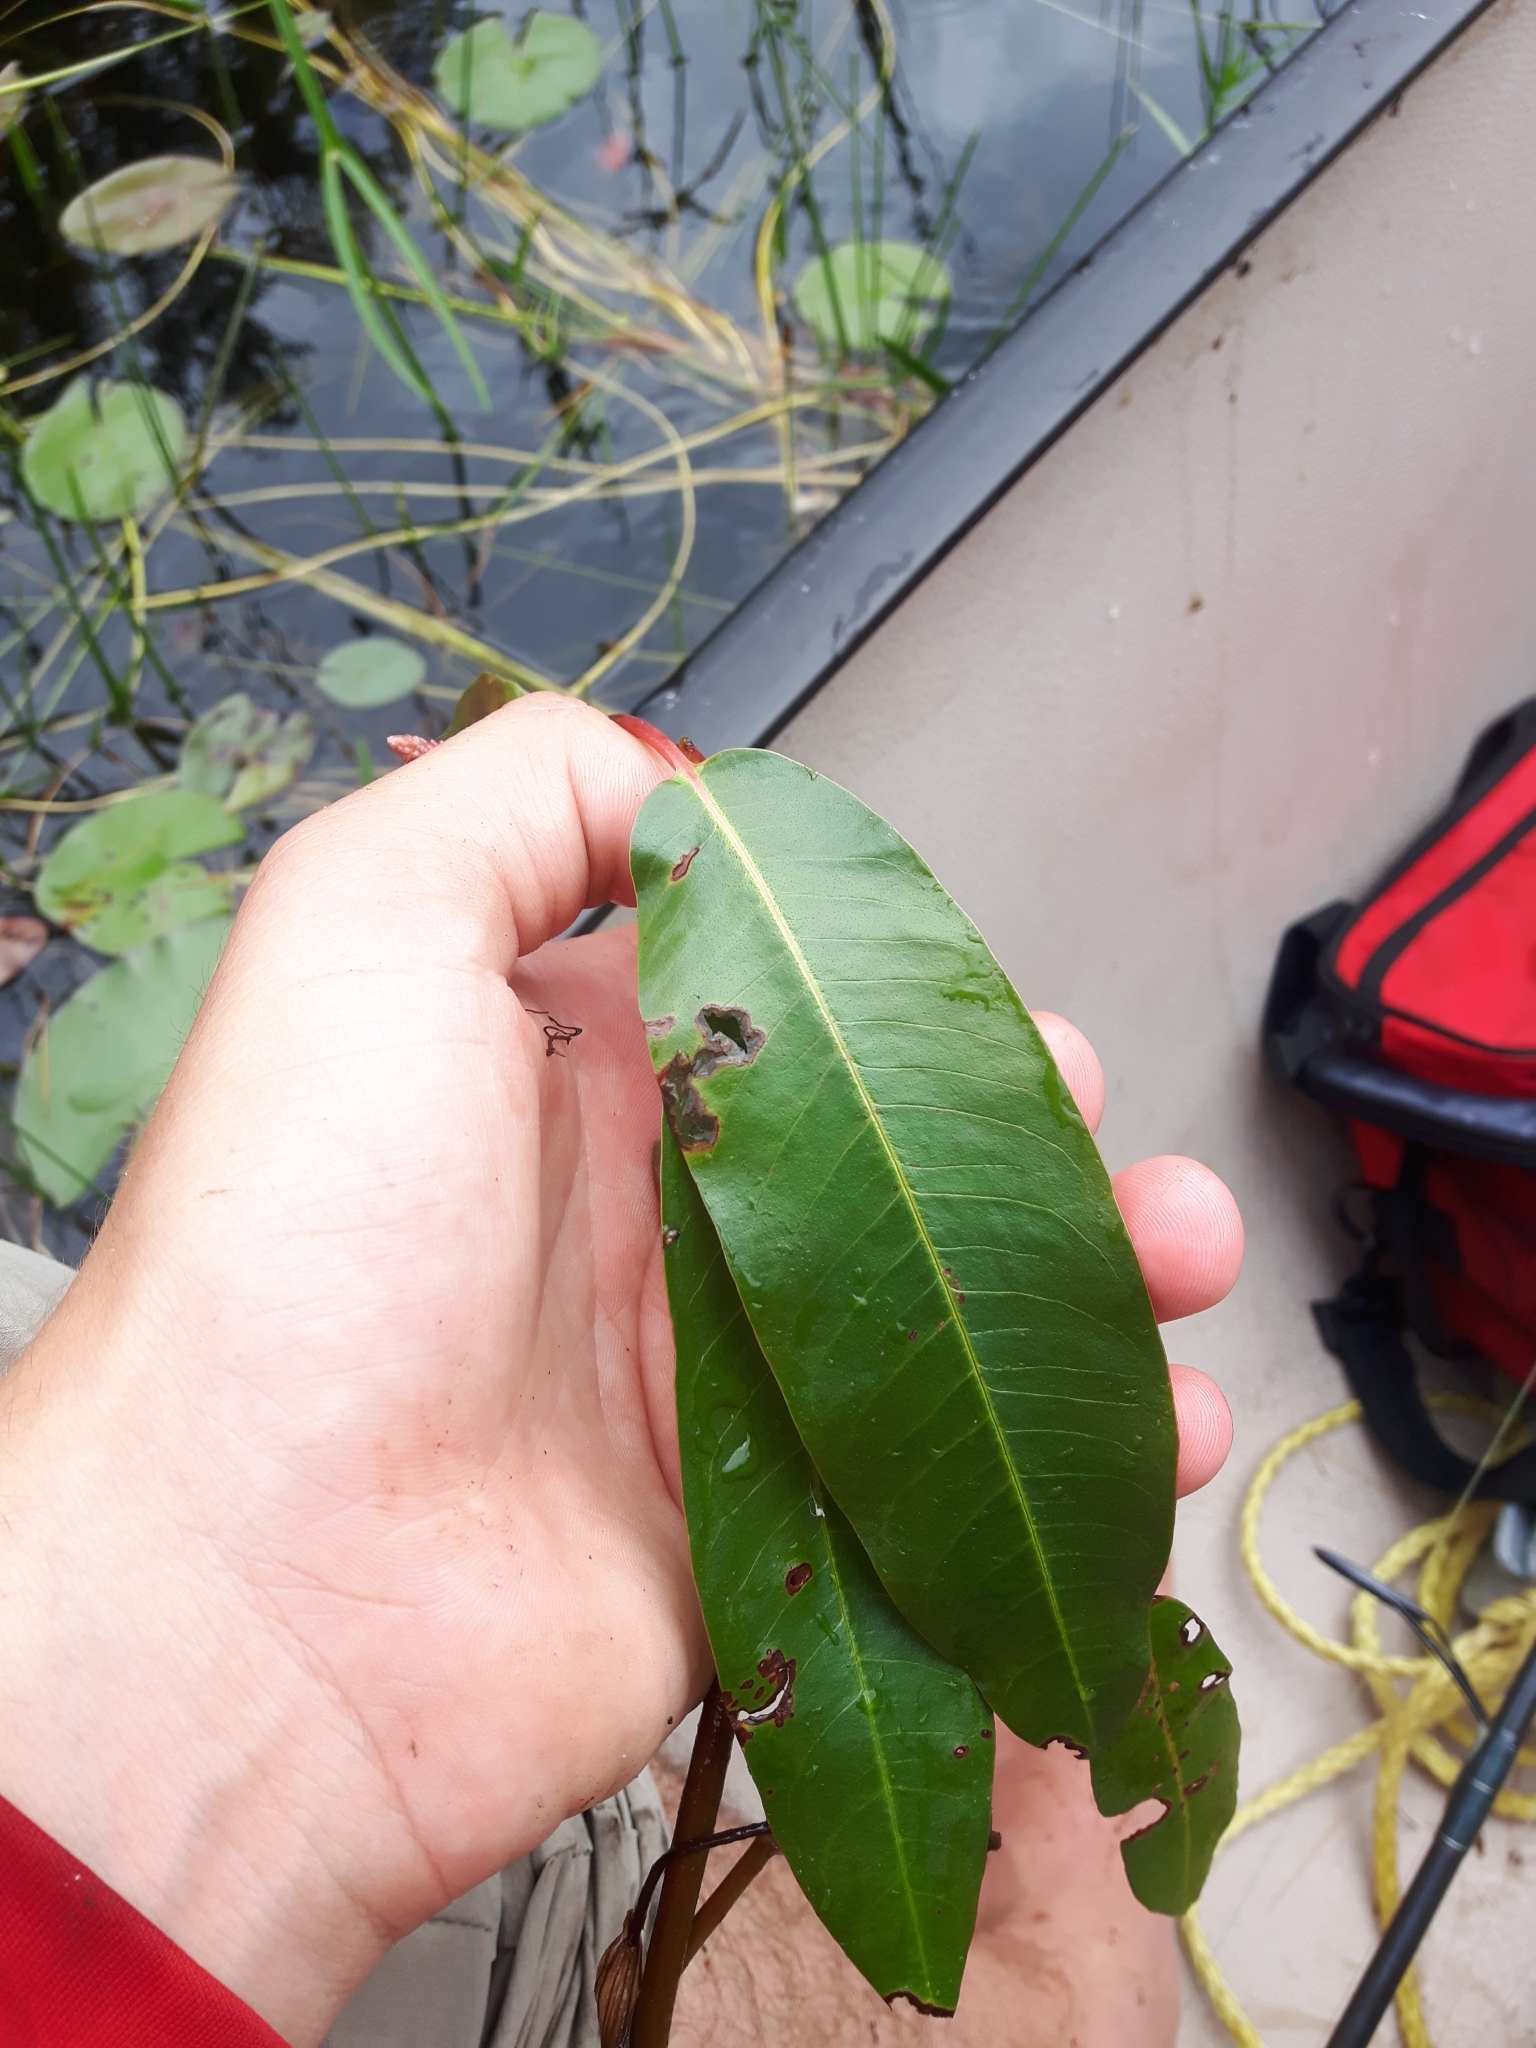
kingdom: Plantae
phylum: Tracheophyta
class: Magnoliopsida
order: Caryophyllales
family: Polygonaceae
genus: Persicaria
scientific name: Persicaria amphibia
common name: Amphibious bistort
